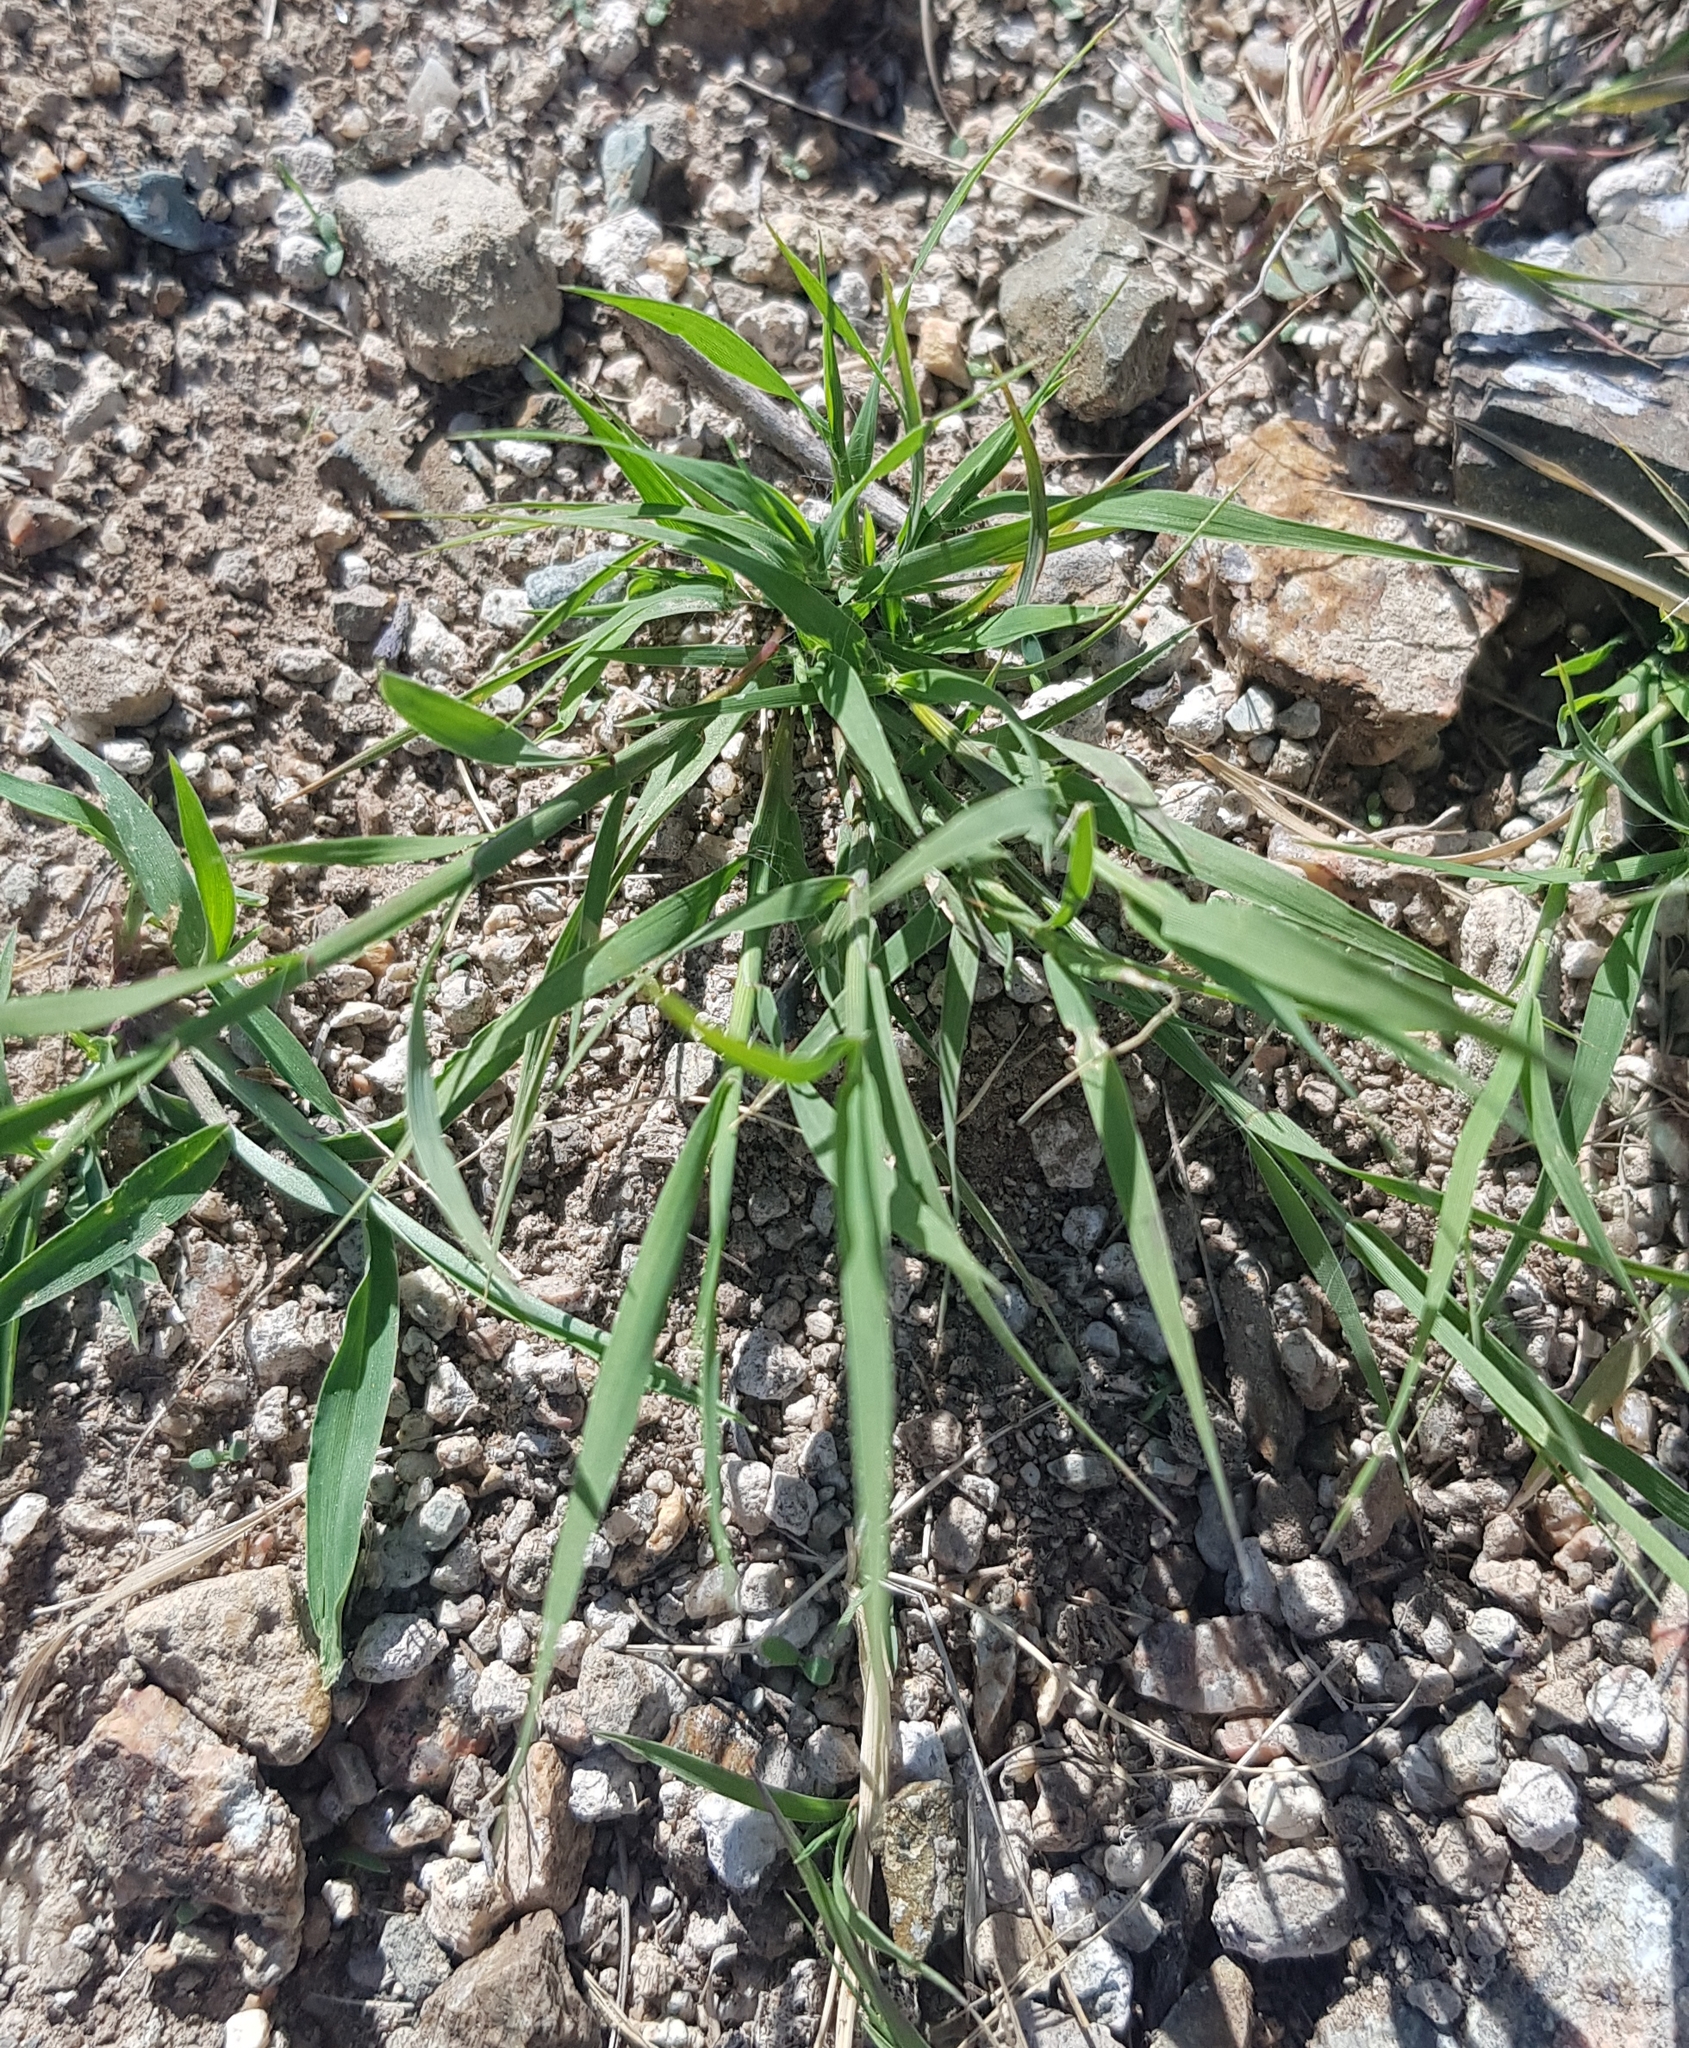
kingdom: Plantae
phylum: Tracheophyta
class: Liliopsida
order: Poales
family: Poaceae
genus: Cleistogenes
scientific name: Cleistogenes squarrosa
